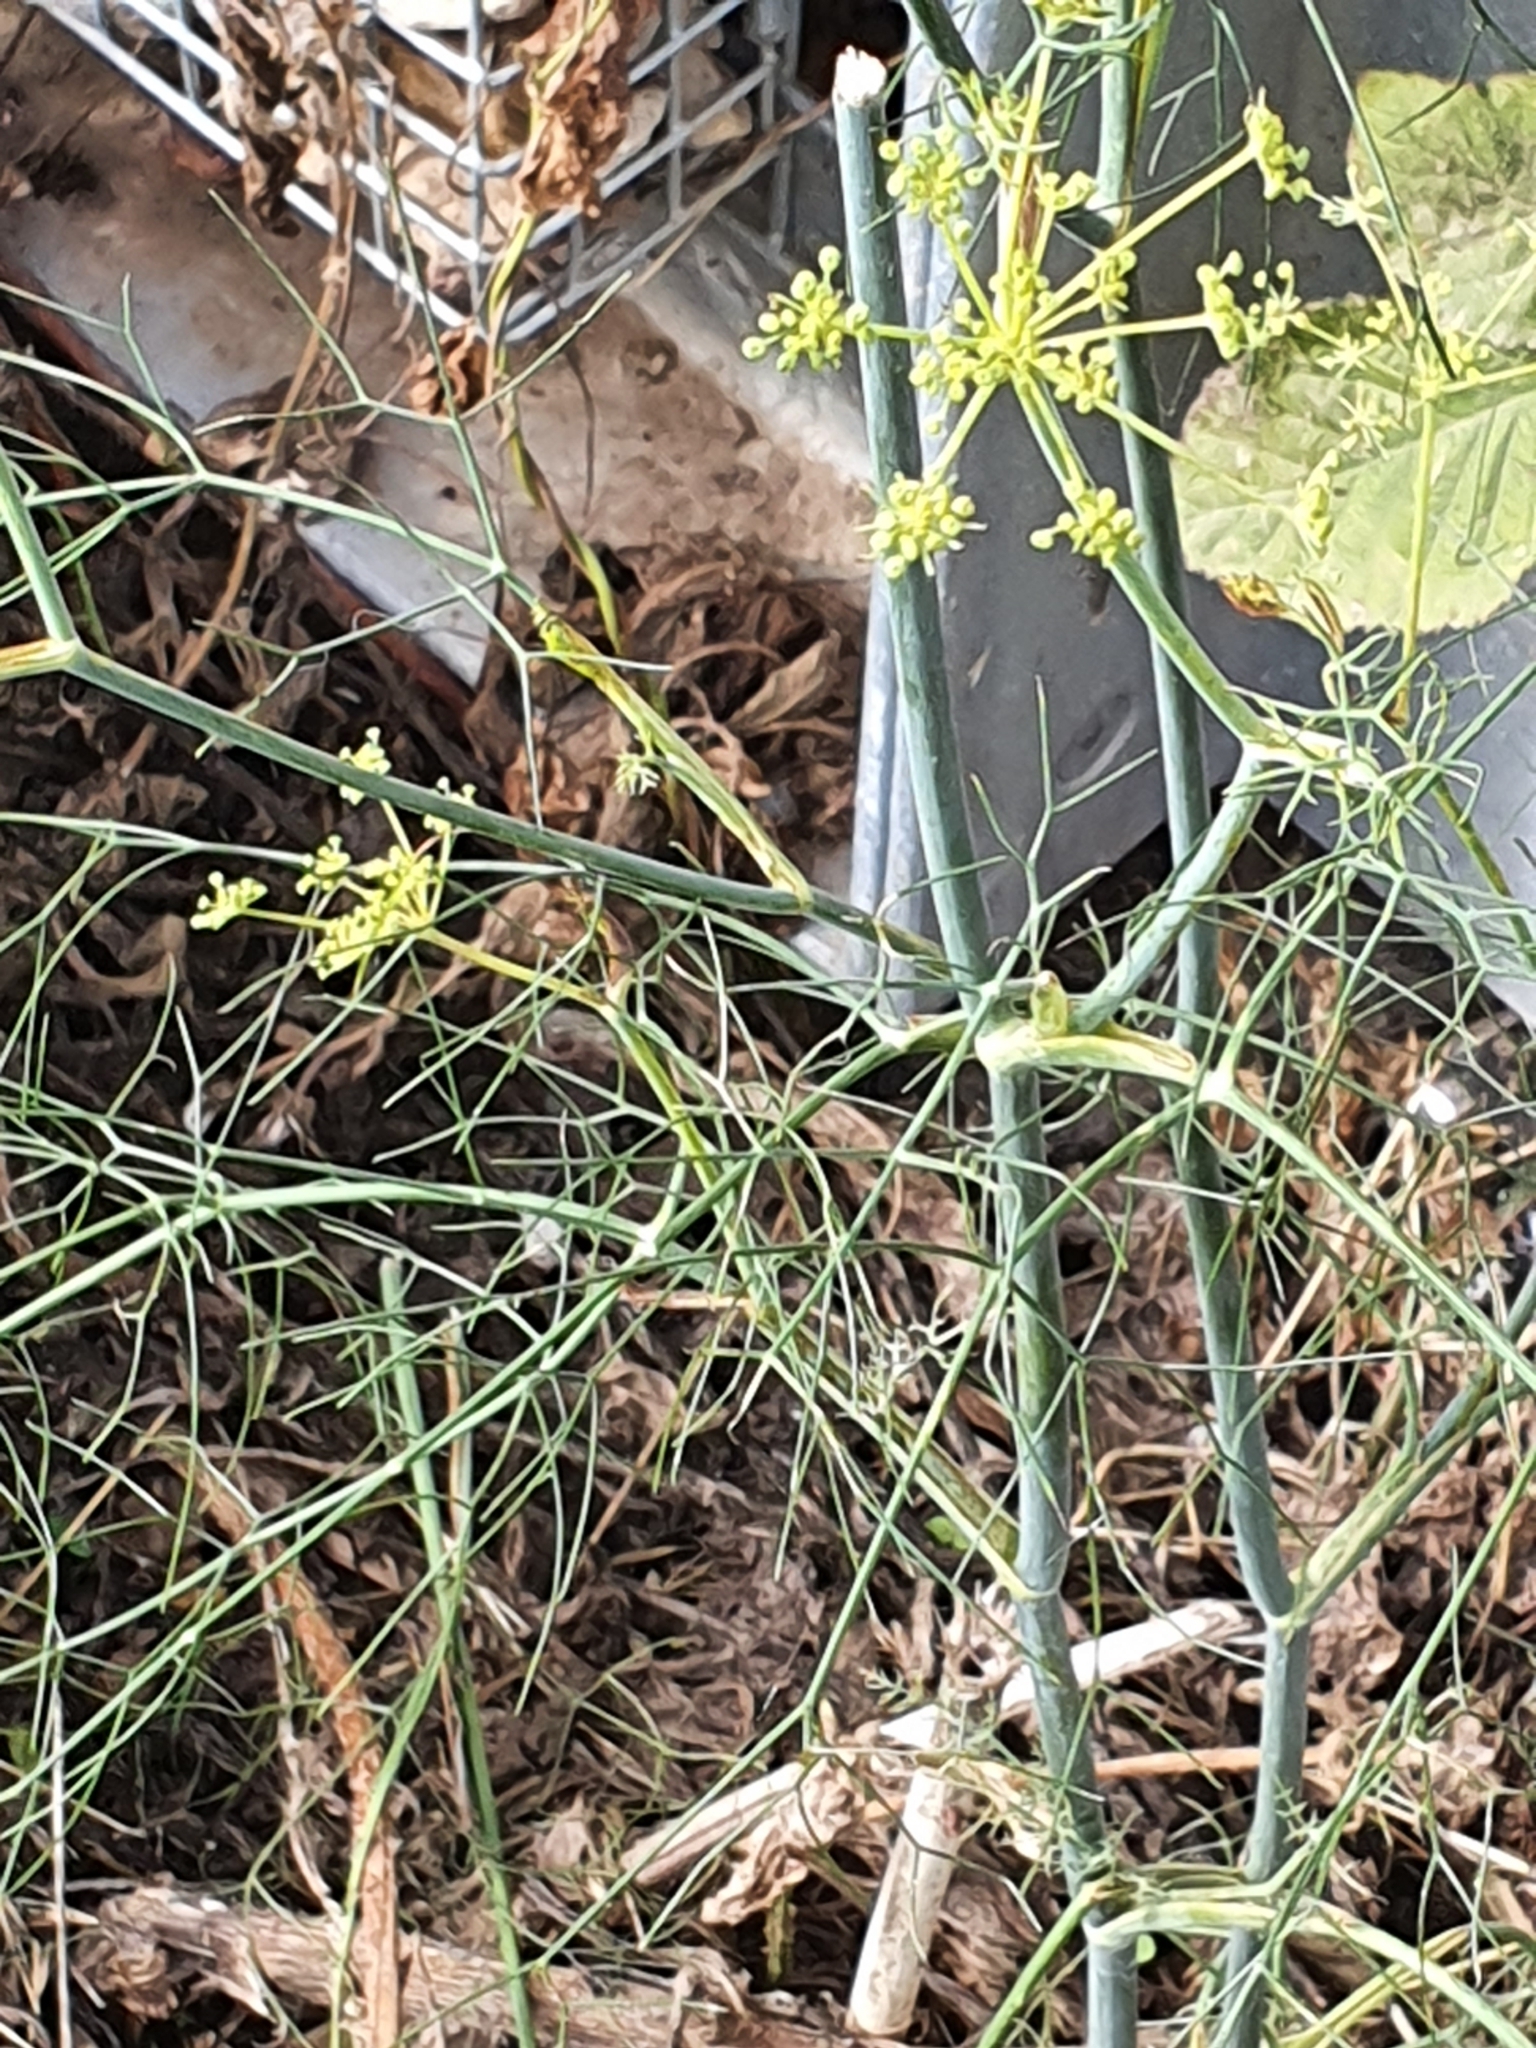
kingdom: Plantae
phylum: Tracheophyta
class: Magnoliopsida
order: Apiales
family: Apiaceae
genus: Foeniculum
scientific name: Foeniculum vulgare
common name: Fennel
